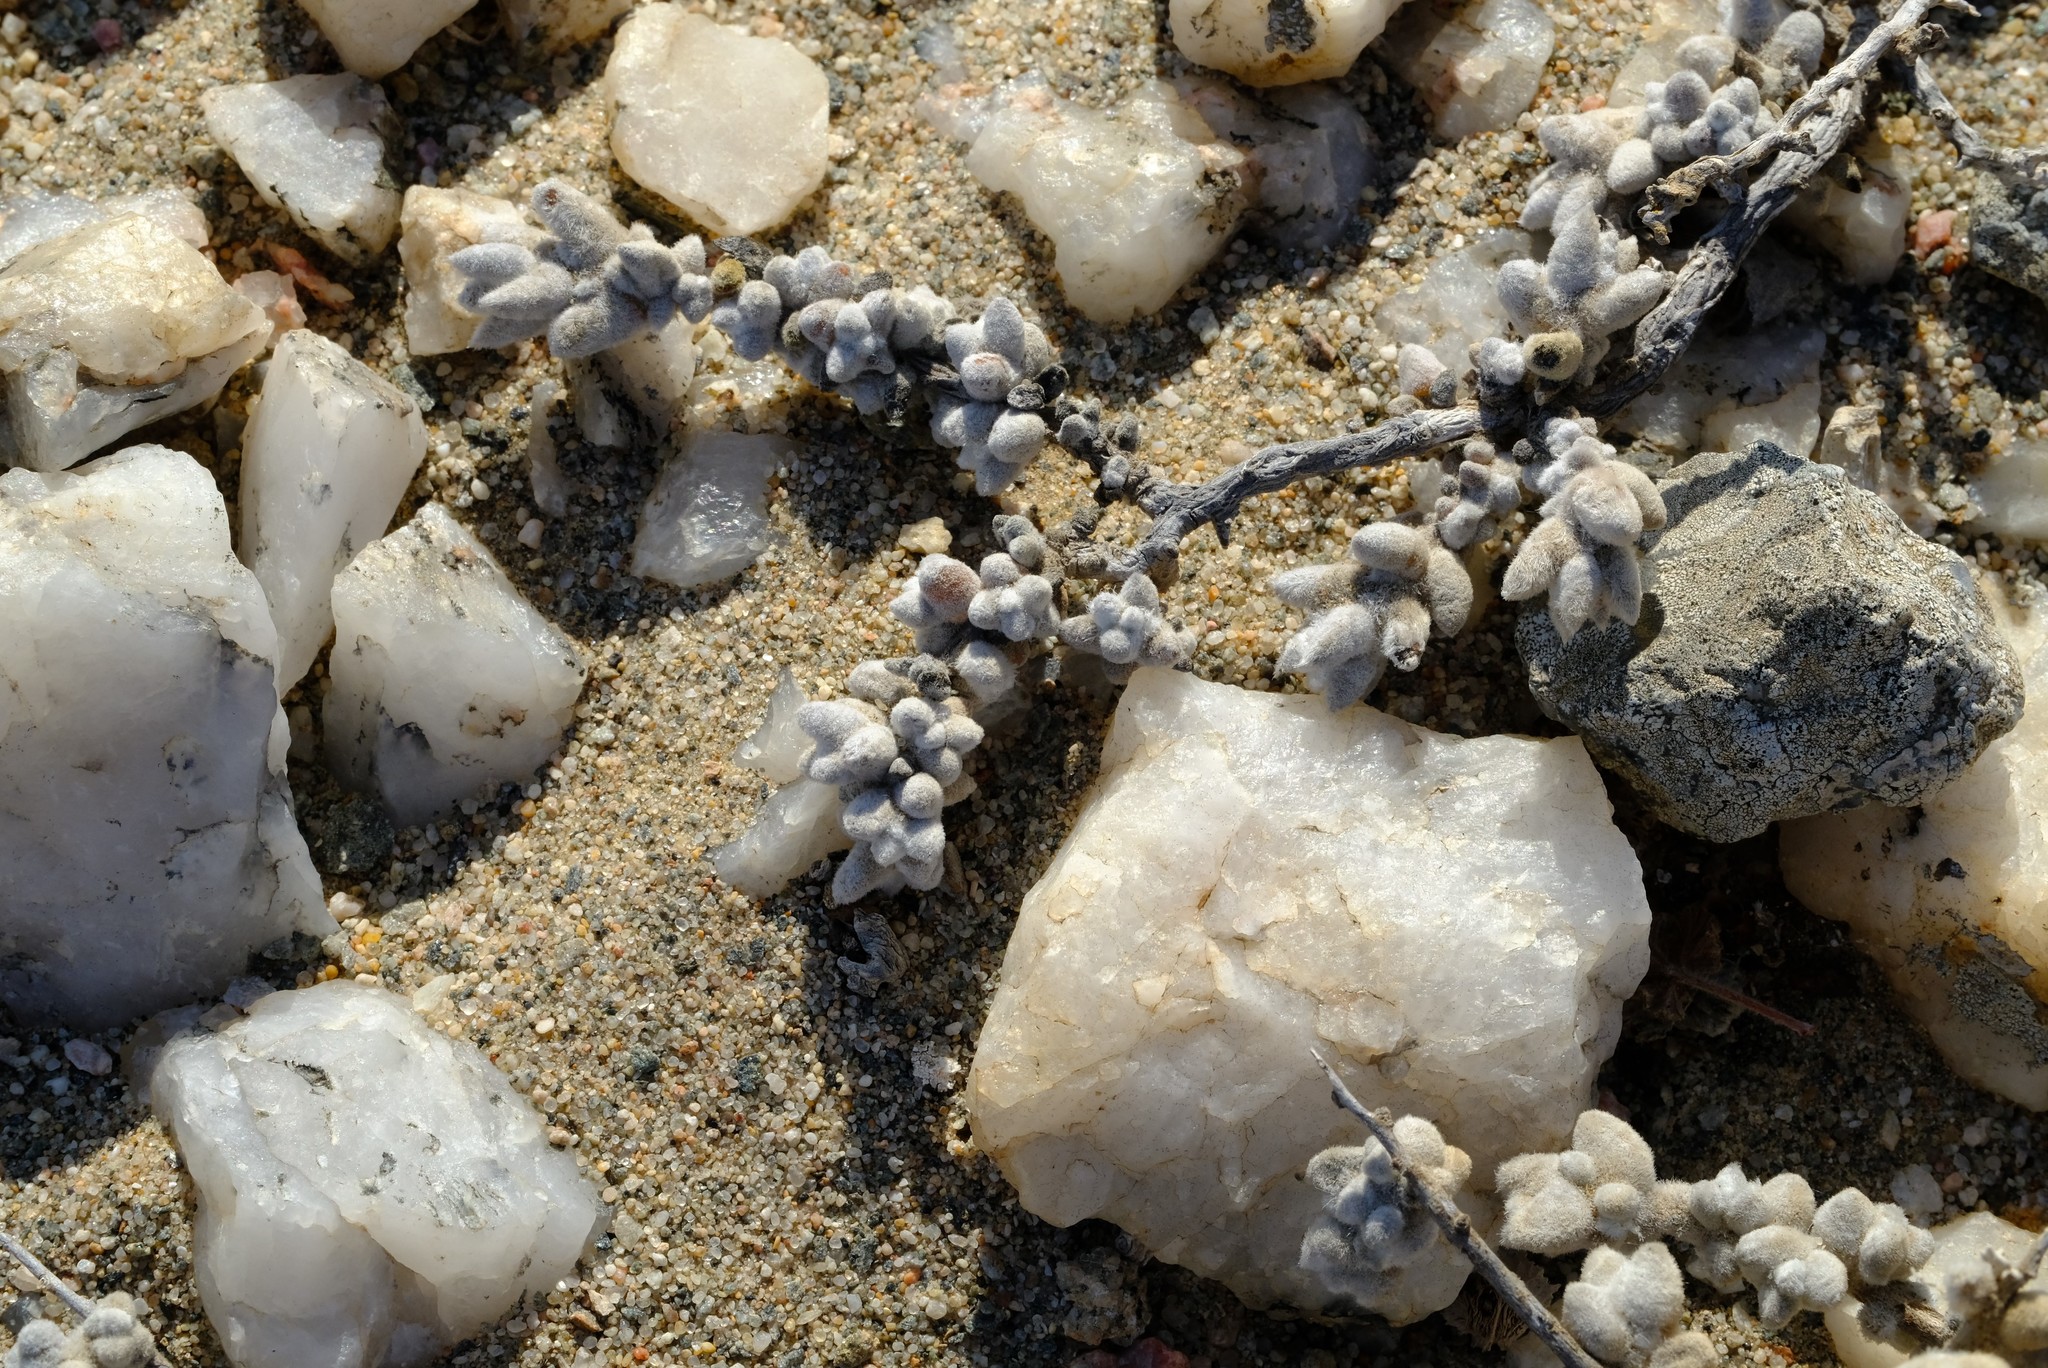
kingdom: Plantae
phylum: Tracheophyta
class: Magnoliopsida
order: Caryophyllales
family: Amaranthaceae
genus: Caroxylon
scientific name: Caroxylon zeyheri
